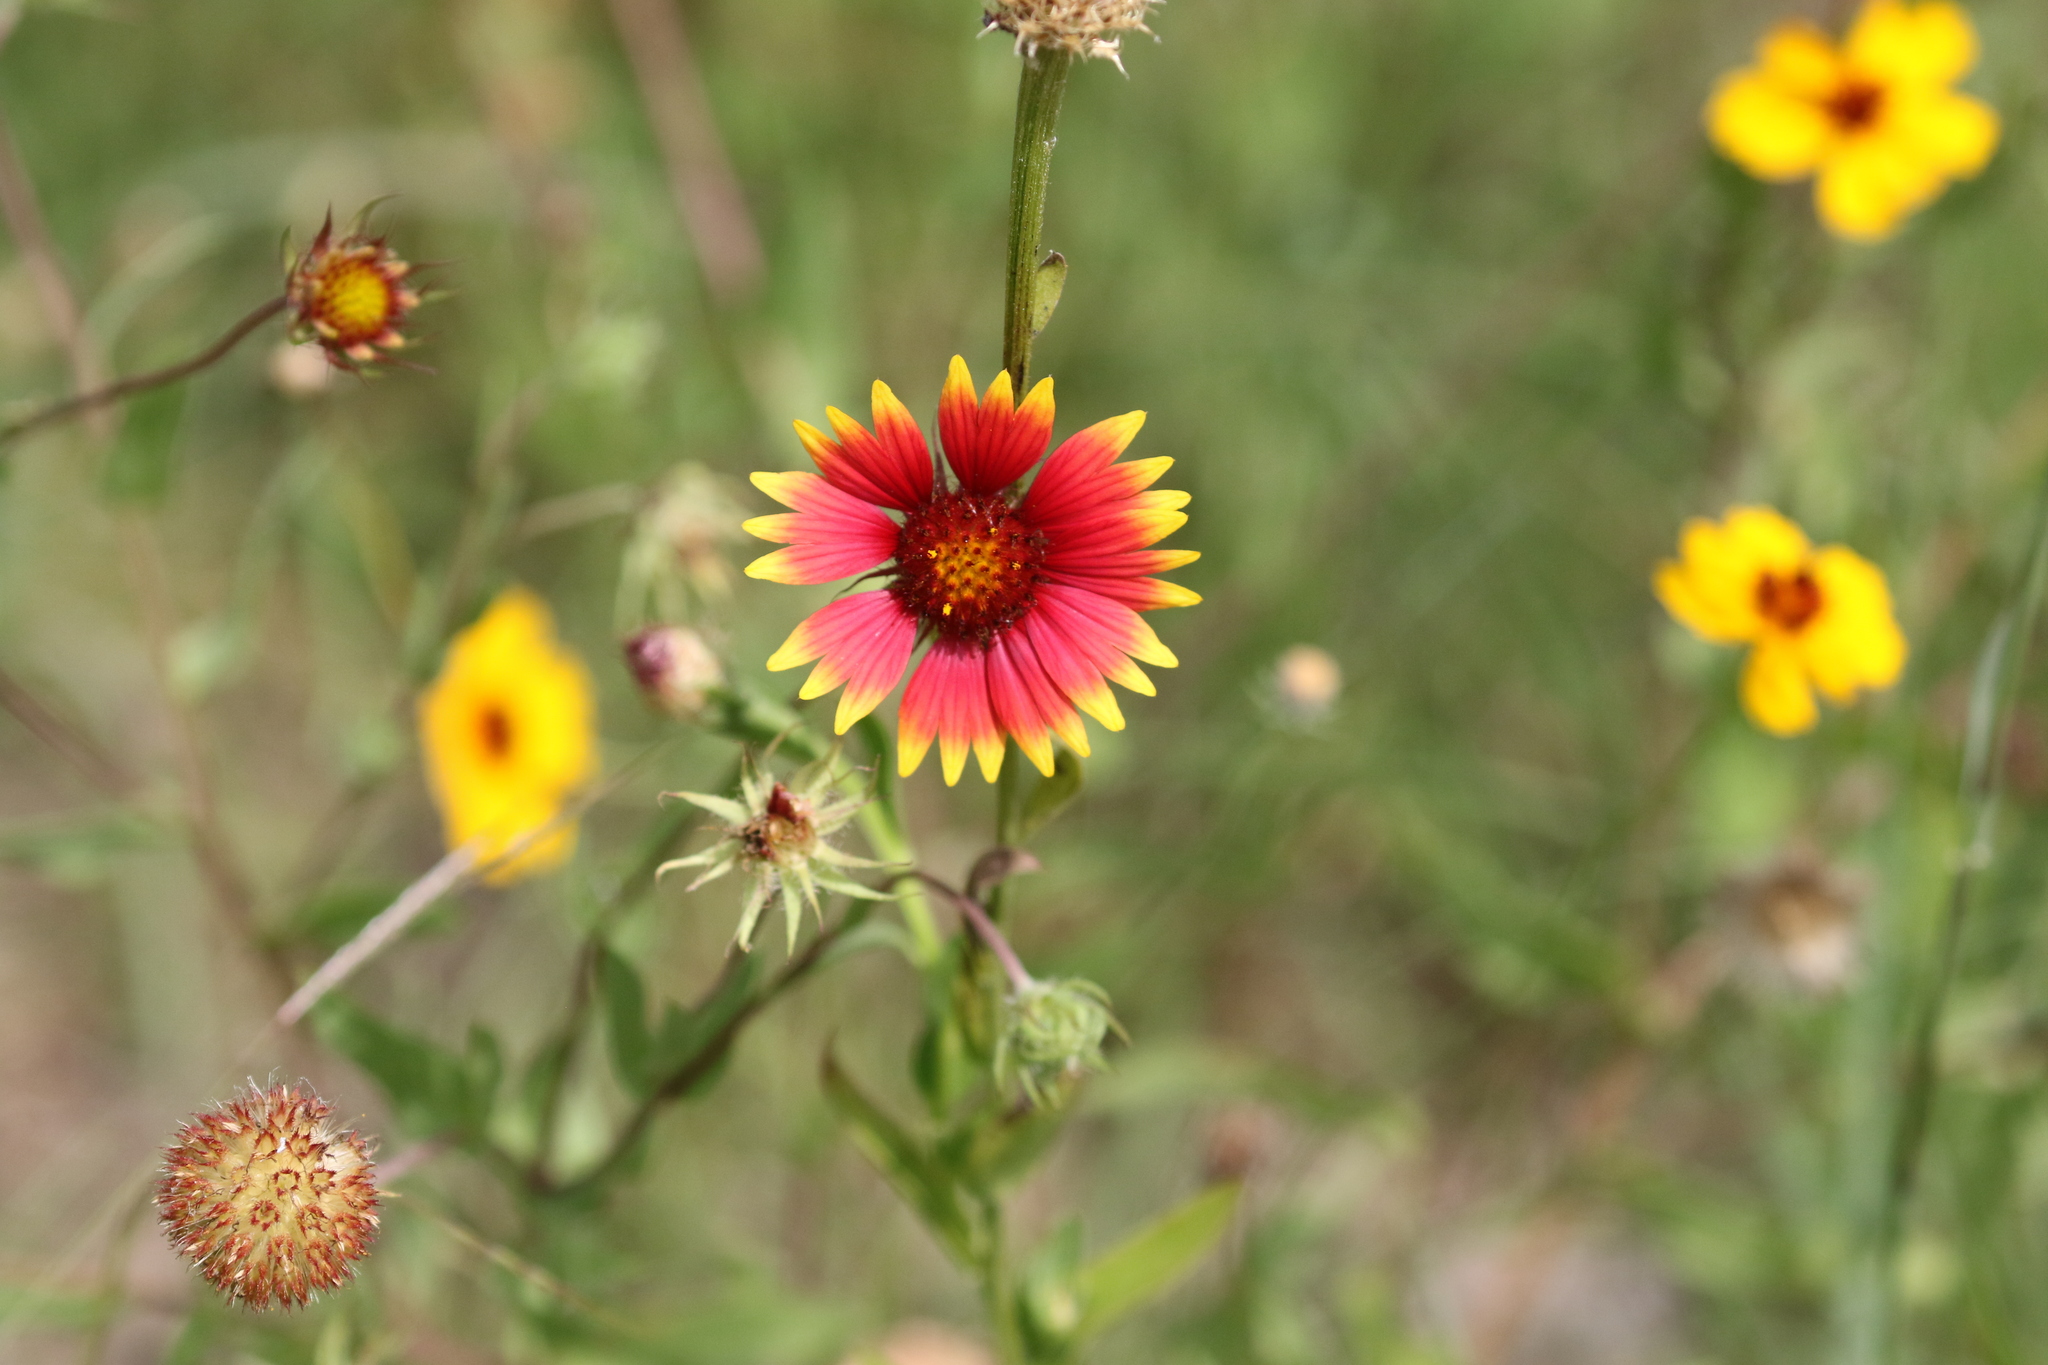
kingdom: Plantae
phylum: Tracheophyta
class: Magnoliopsida
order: Asterales
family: Asteraceae
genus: Gaillardia
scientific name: Gaillardia pulchella
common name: Firewheel
